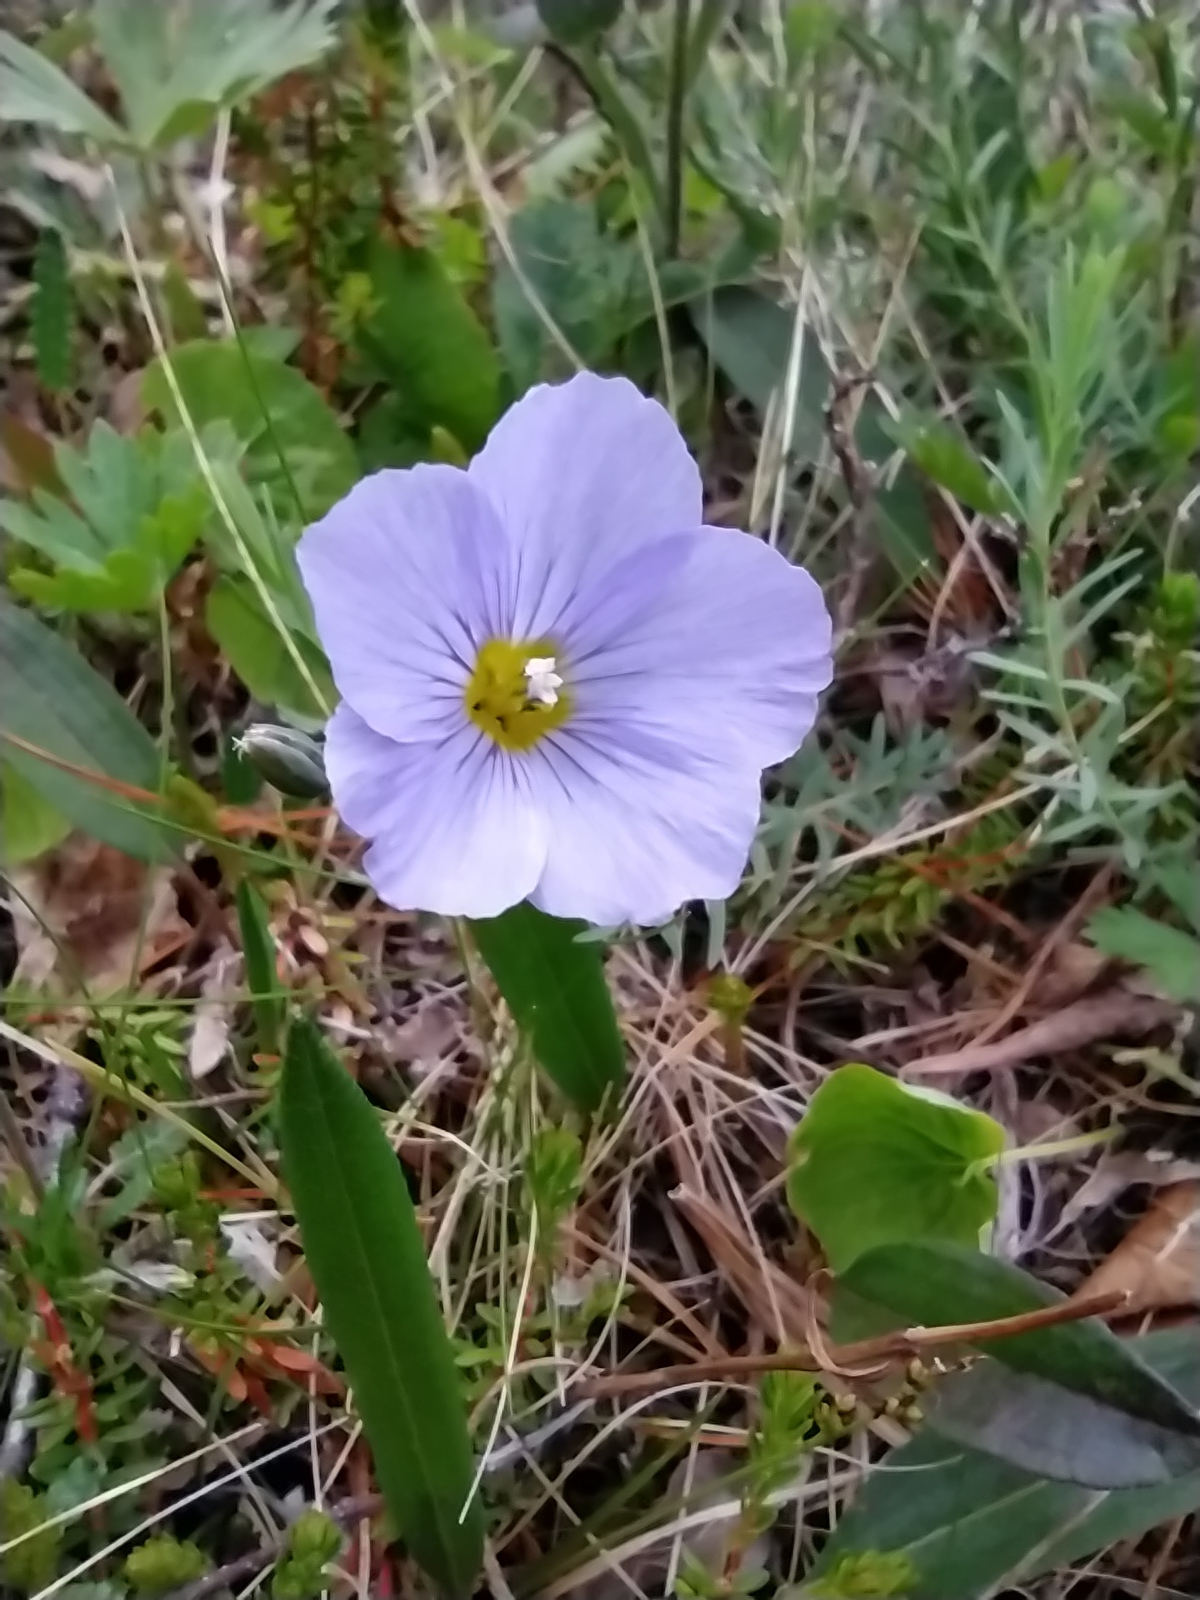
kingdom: Plantae
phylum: Tracheophyta
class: Magnoliopsida
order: Malpighiales
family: Linaceae
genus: Linum
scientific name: Linum komarovii
